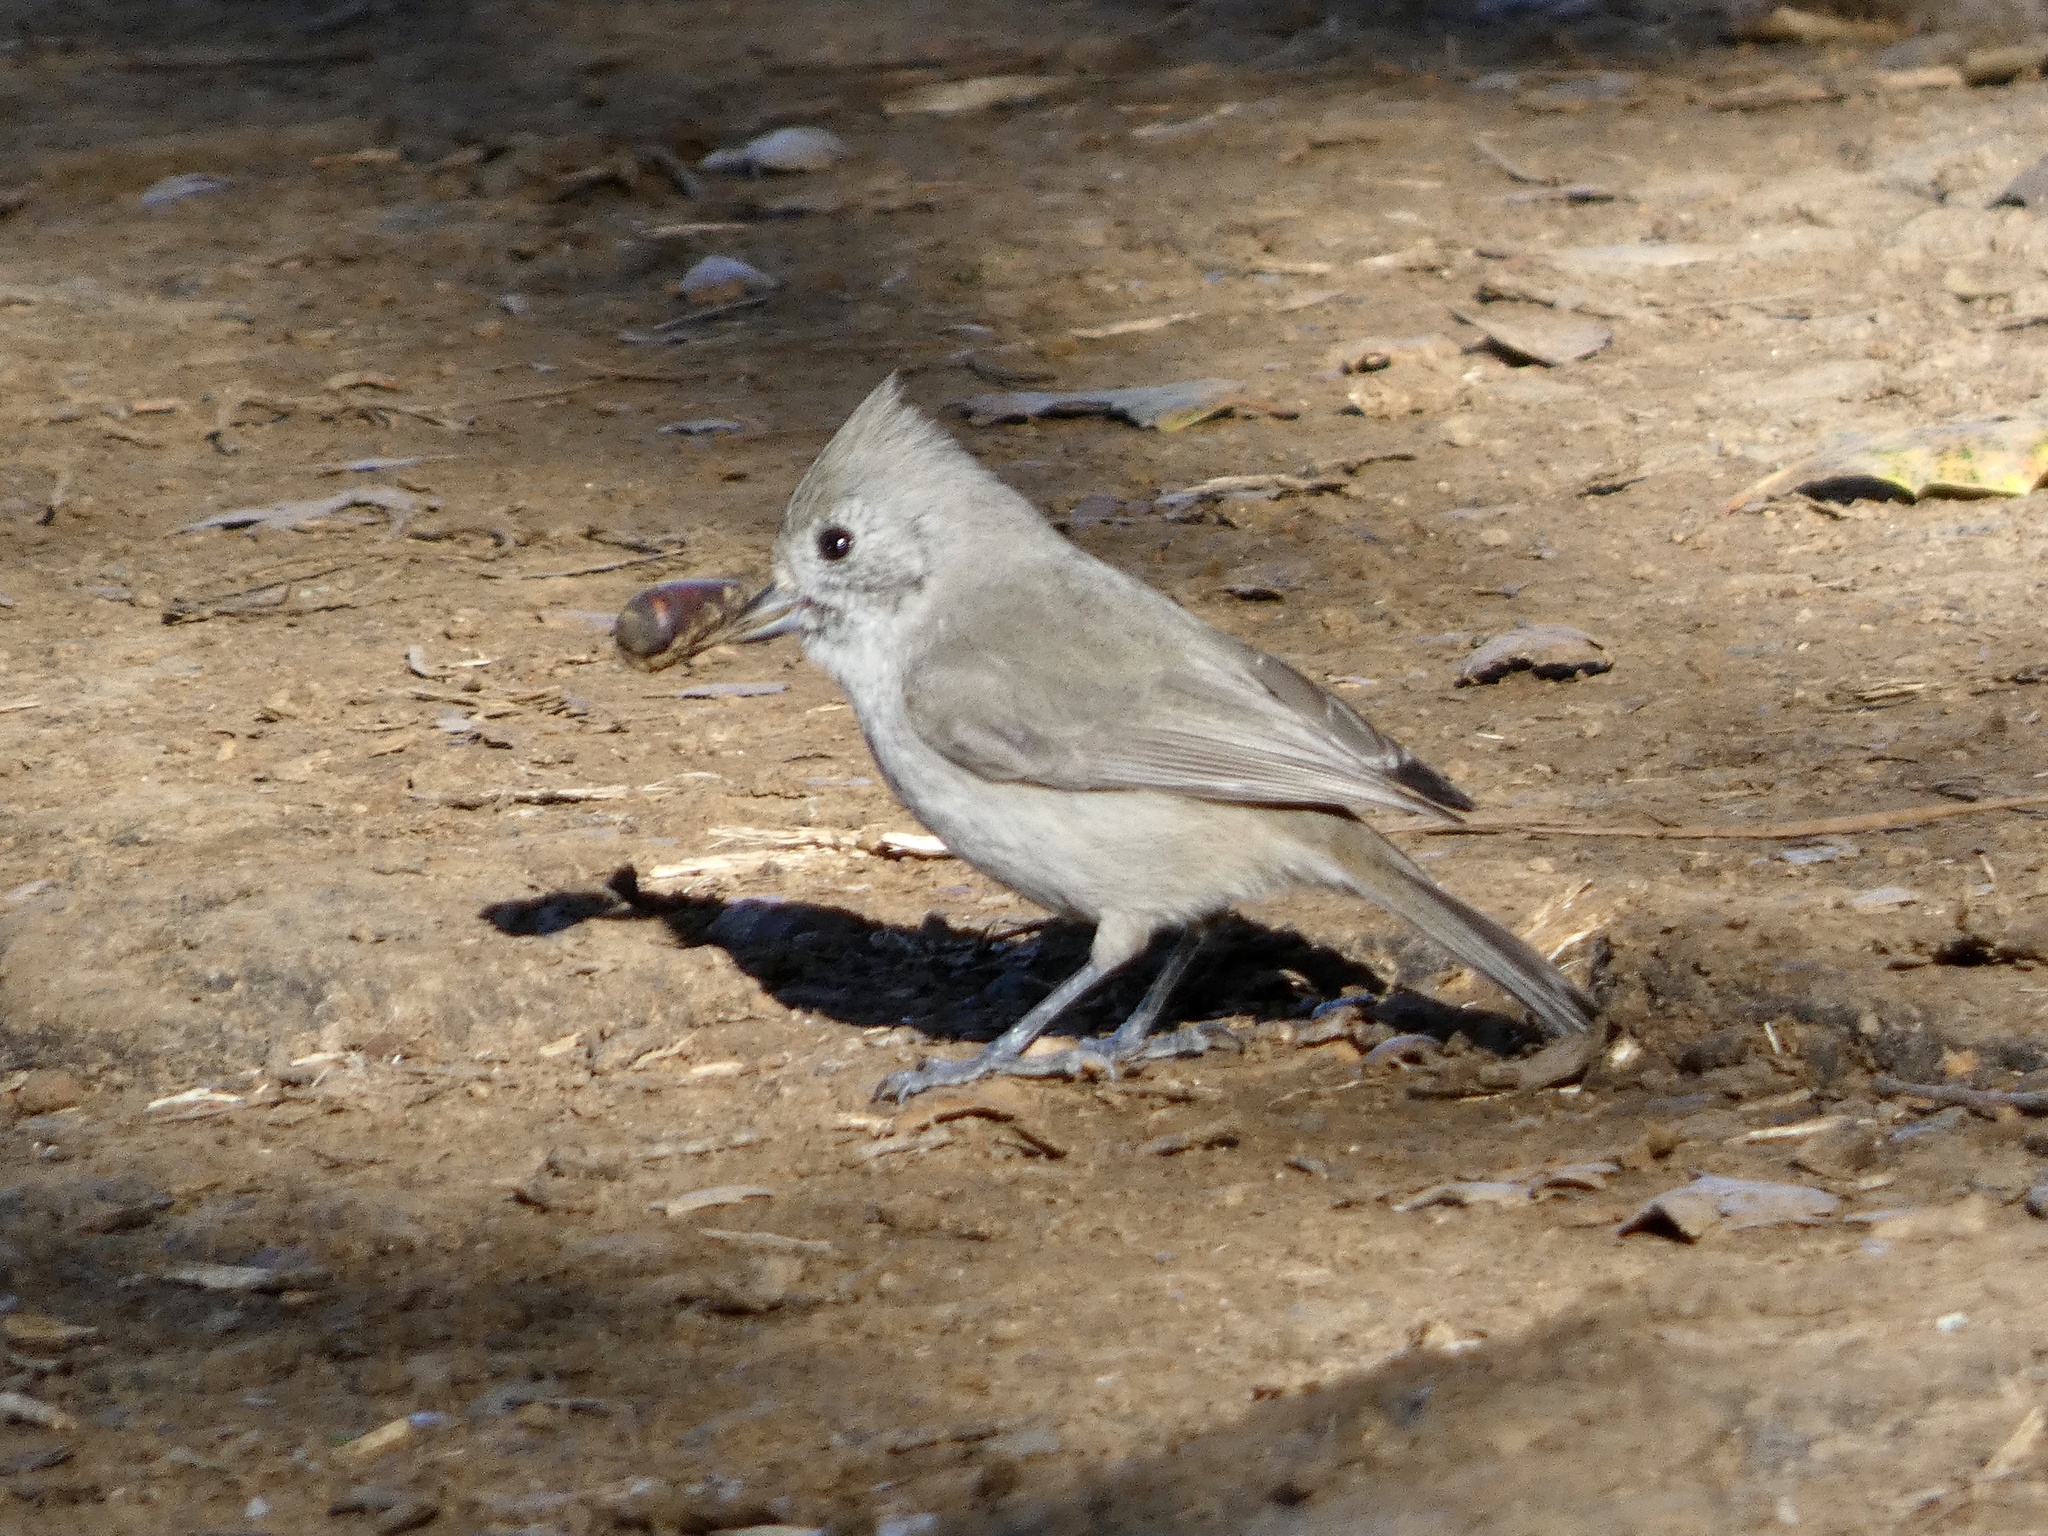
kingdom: Animalia
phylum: Chordata
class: Aves
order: Passeriformes
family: Paridae
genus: Baeolophus
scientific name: Baeolophus inornatus
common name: Oak titmouse
